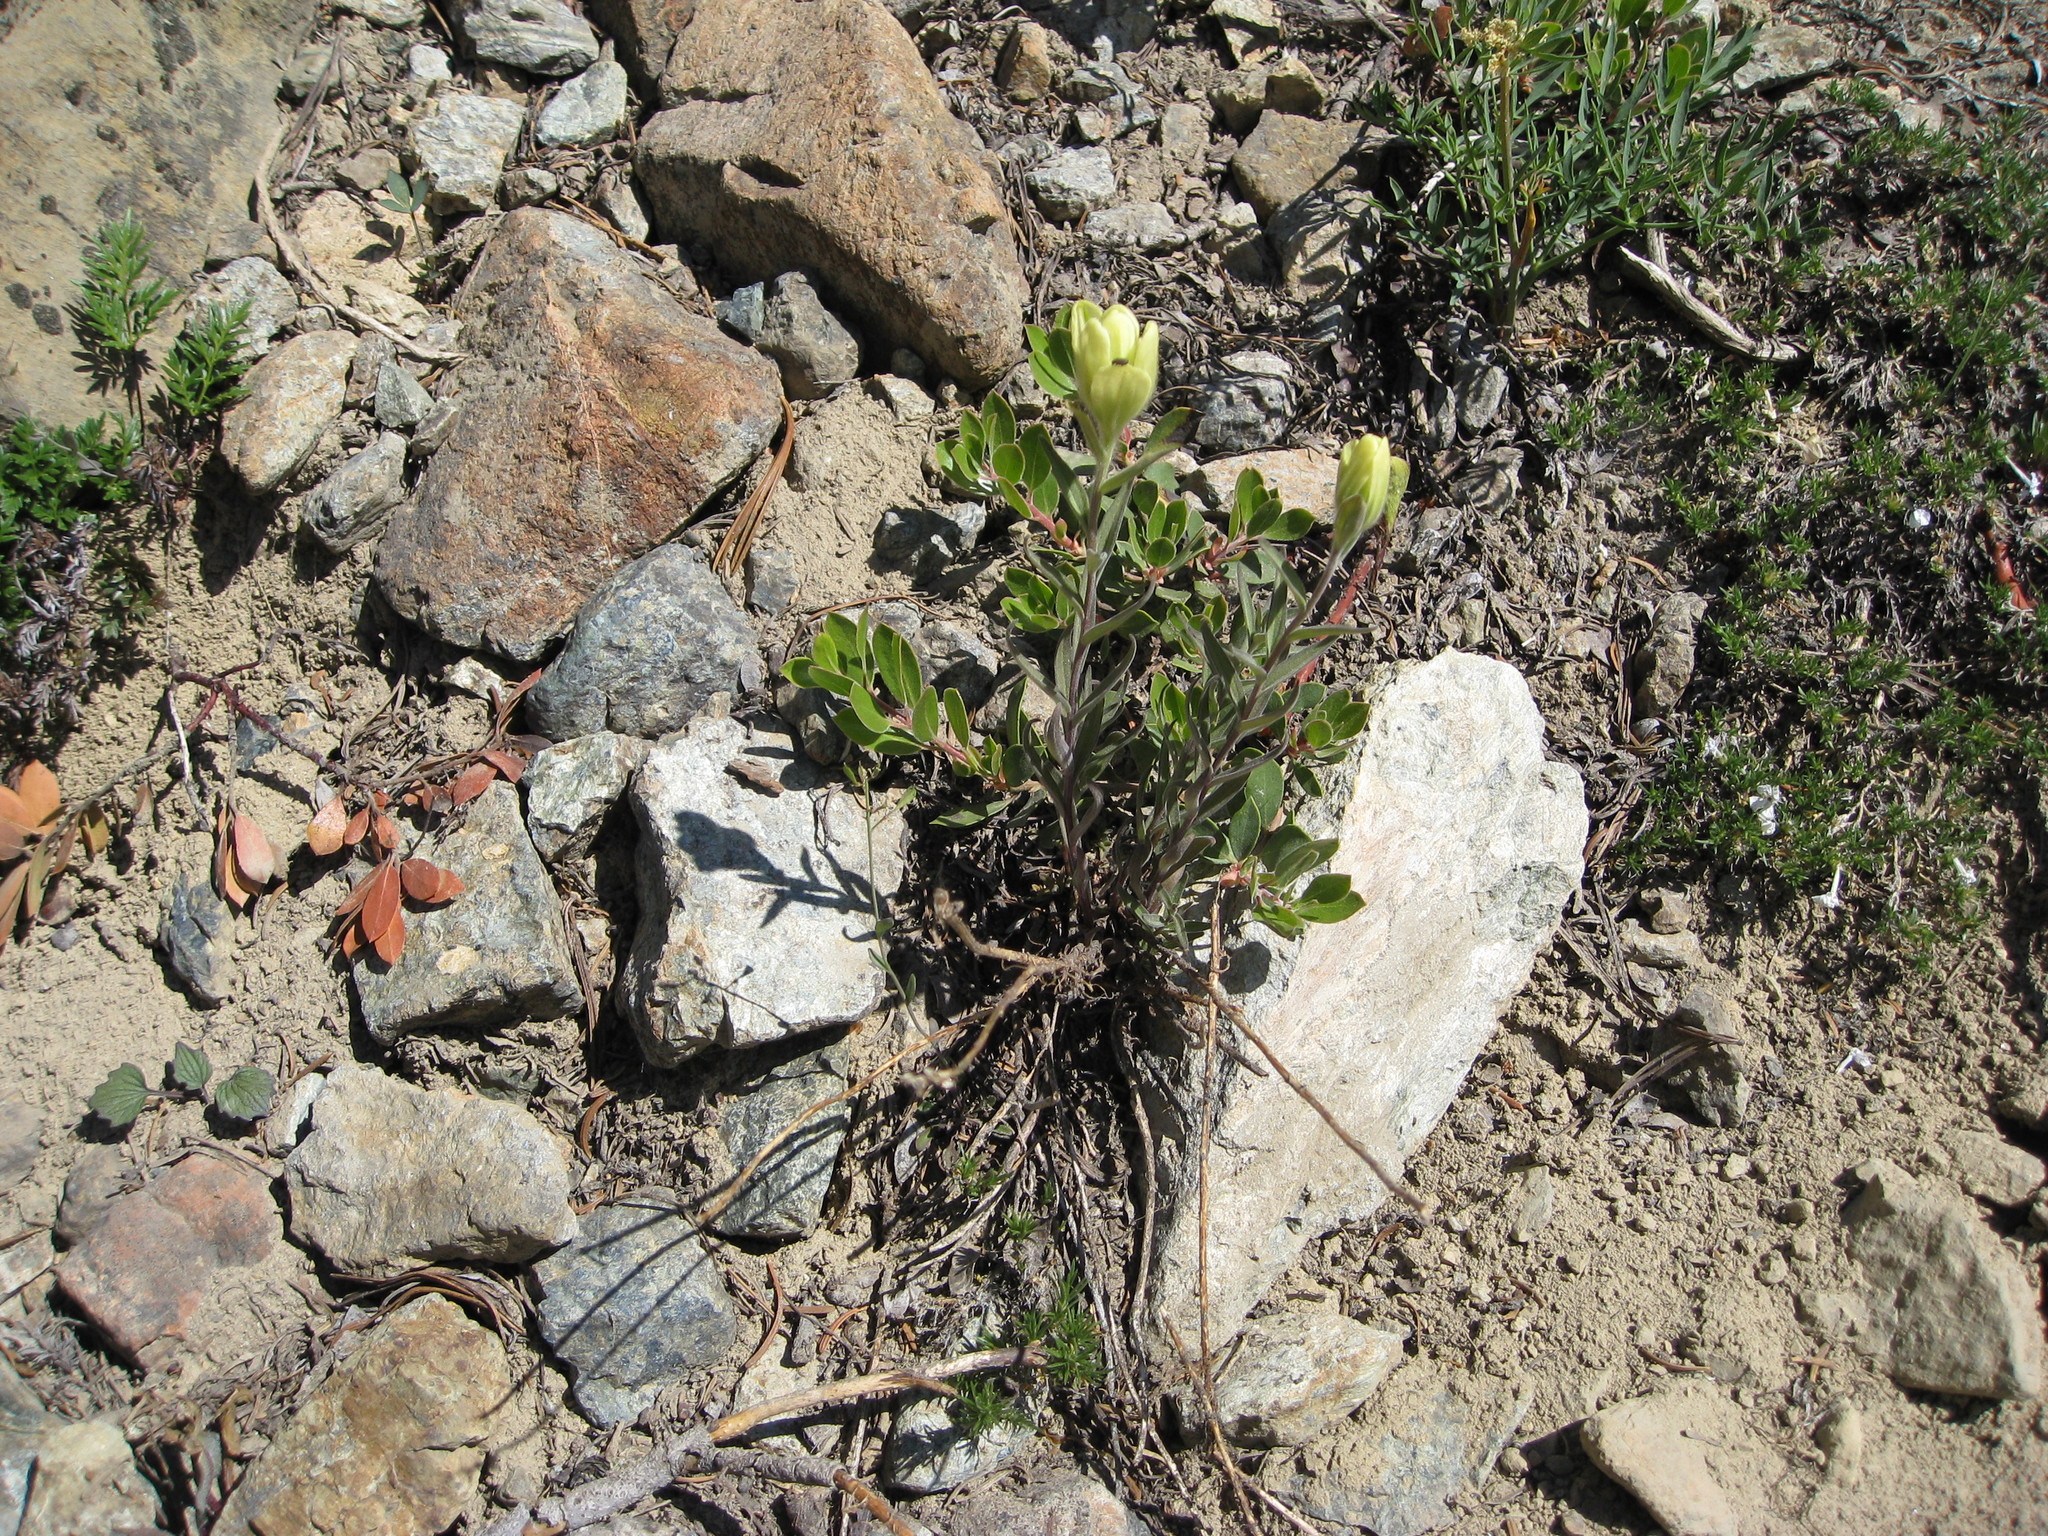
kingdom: Plantae
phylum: Tracheophyta
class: Magnoliopsida
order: Lamiales
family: Orobanchaceae
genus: Castilleja
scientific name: Castilleja elmeri
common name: Elmer's paintbrush
